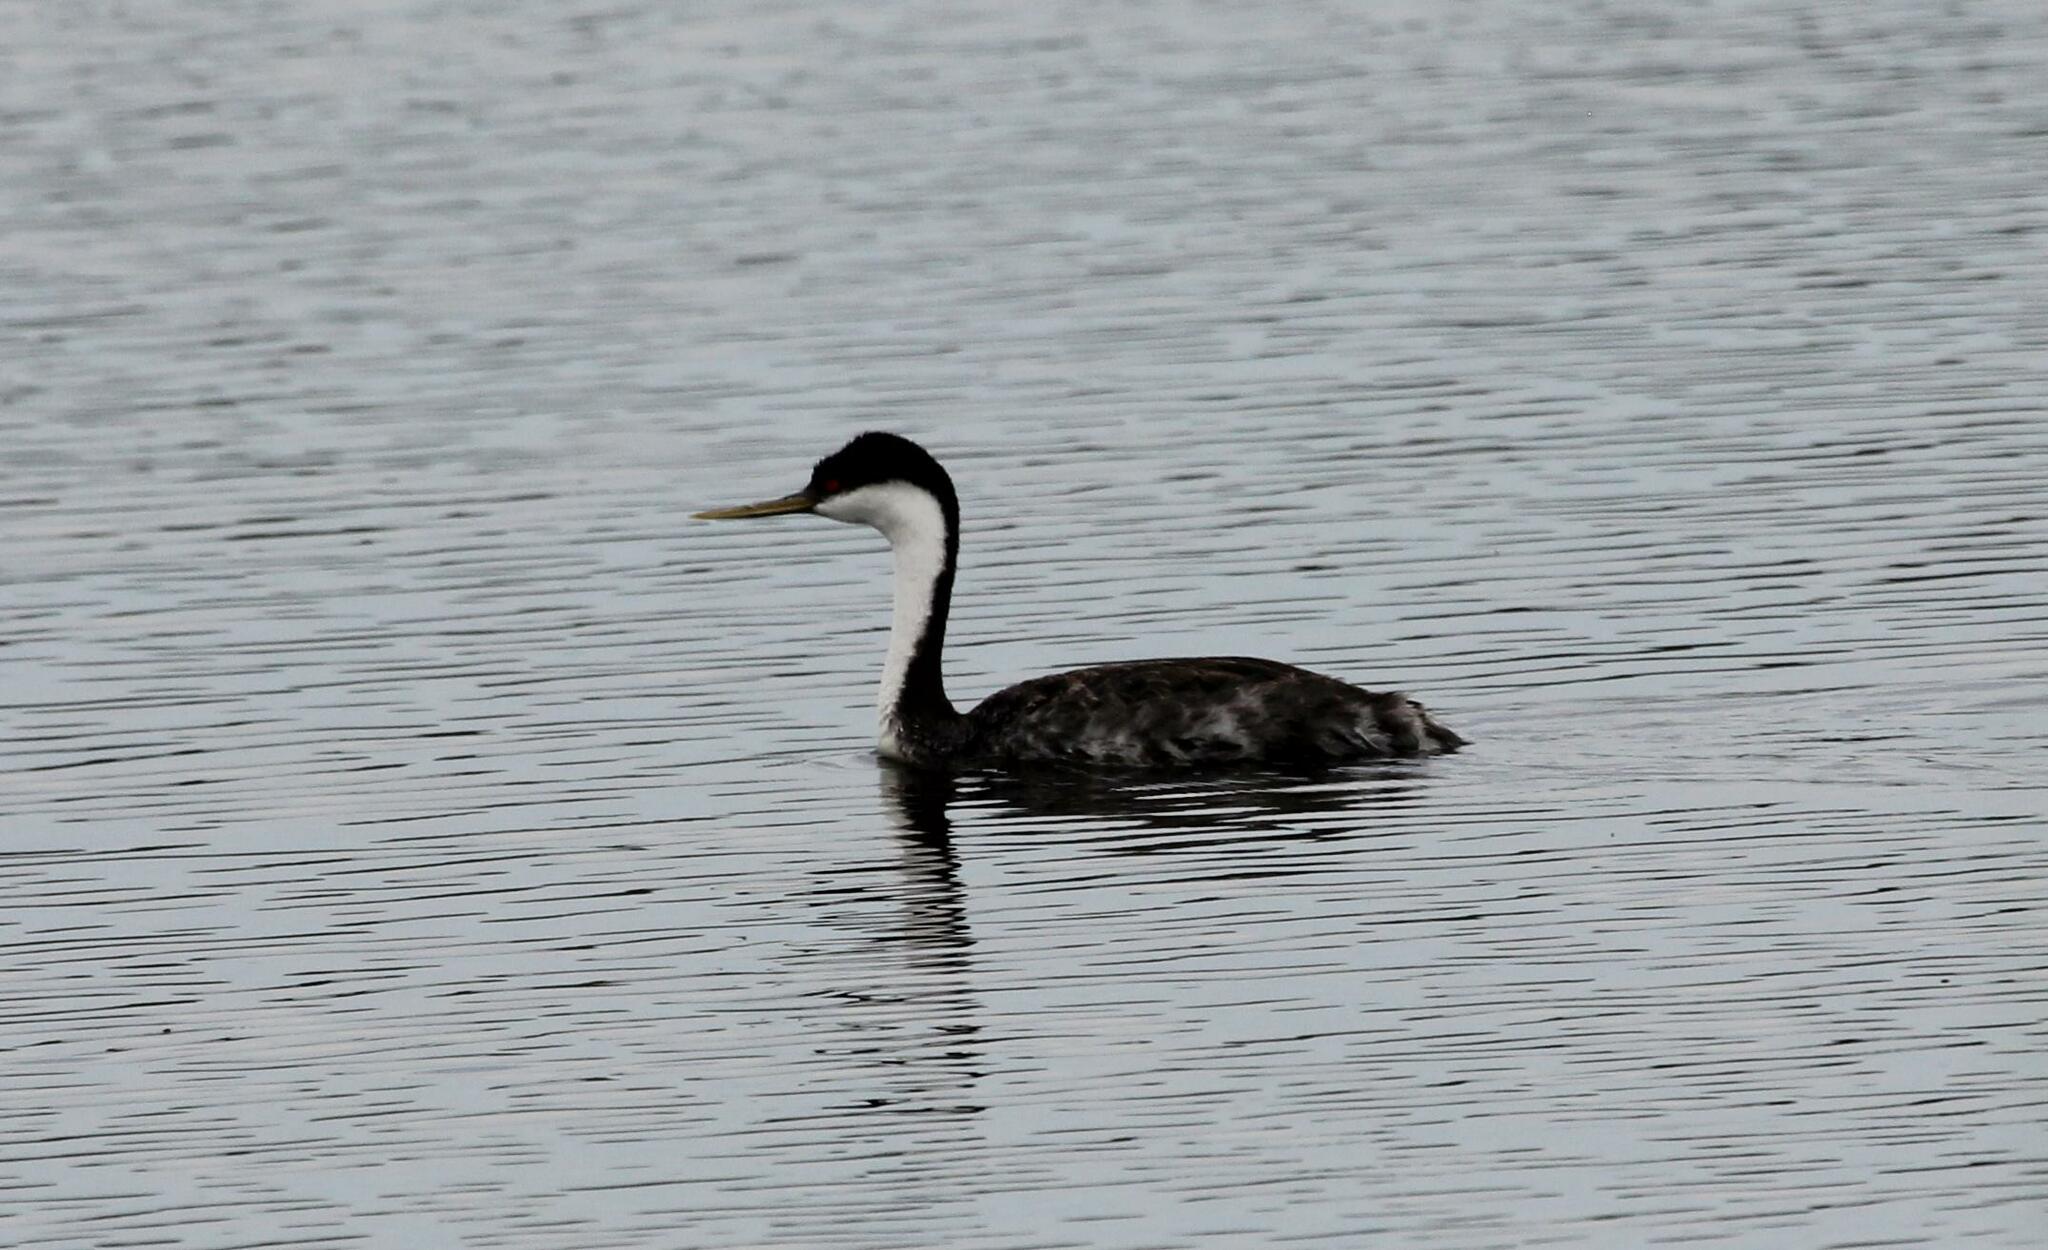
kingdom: Animalia
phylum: Chordata
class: Aves
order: Podicipediformes
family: Podicipedidae
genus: Aechmophorus
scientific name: Aechmophorus occidentalis
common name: Western grebe
